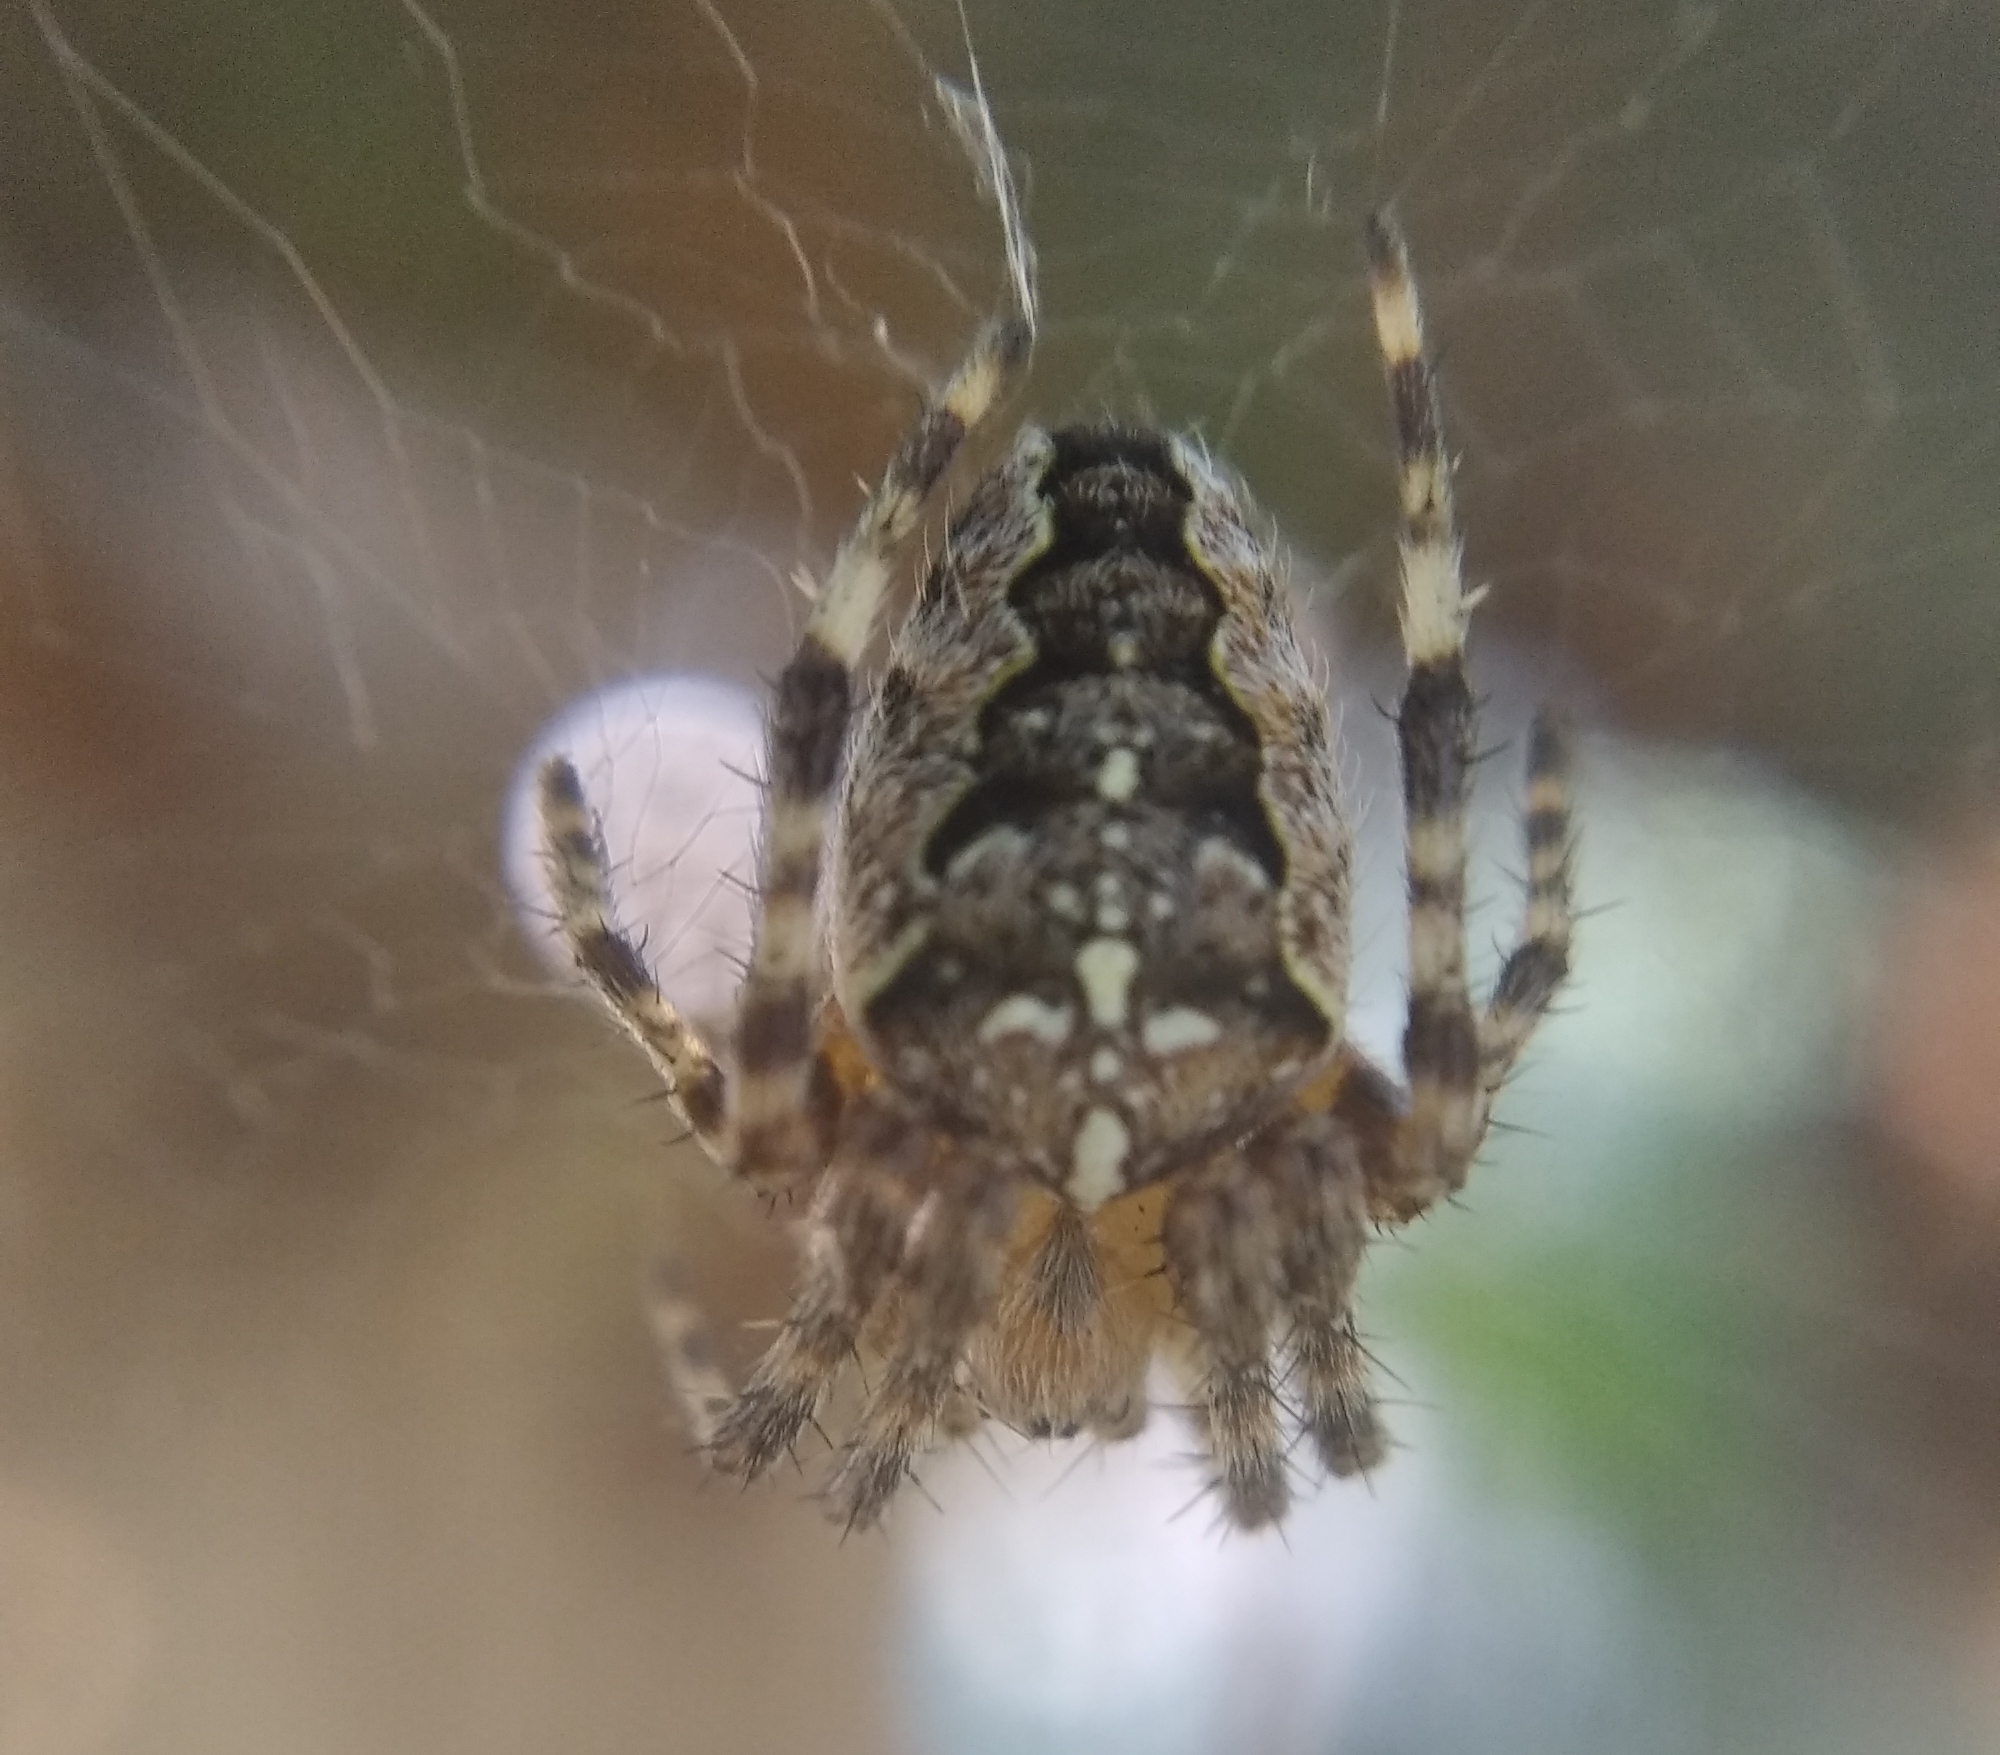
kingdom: Animalia
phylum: Arthropoda
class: Arachnida
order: Araneae
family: Araneidae
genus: Araneus
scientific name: Araneus diadematus
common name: Cross orbweaver
